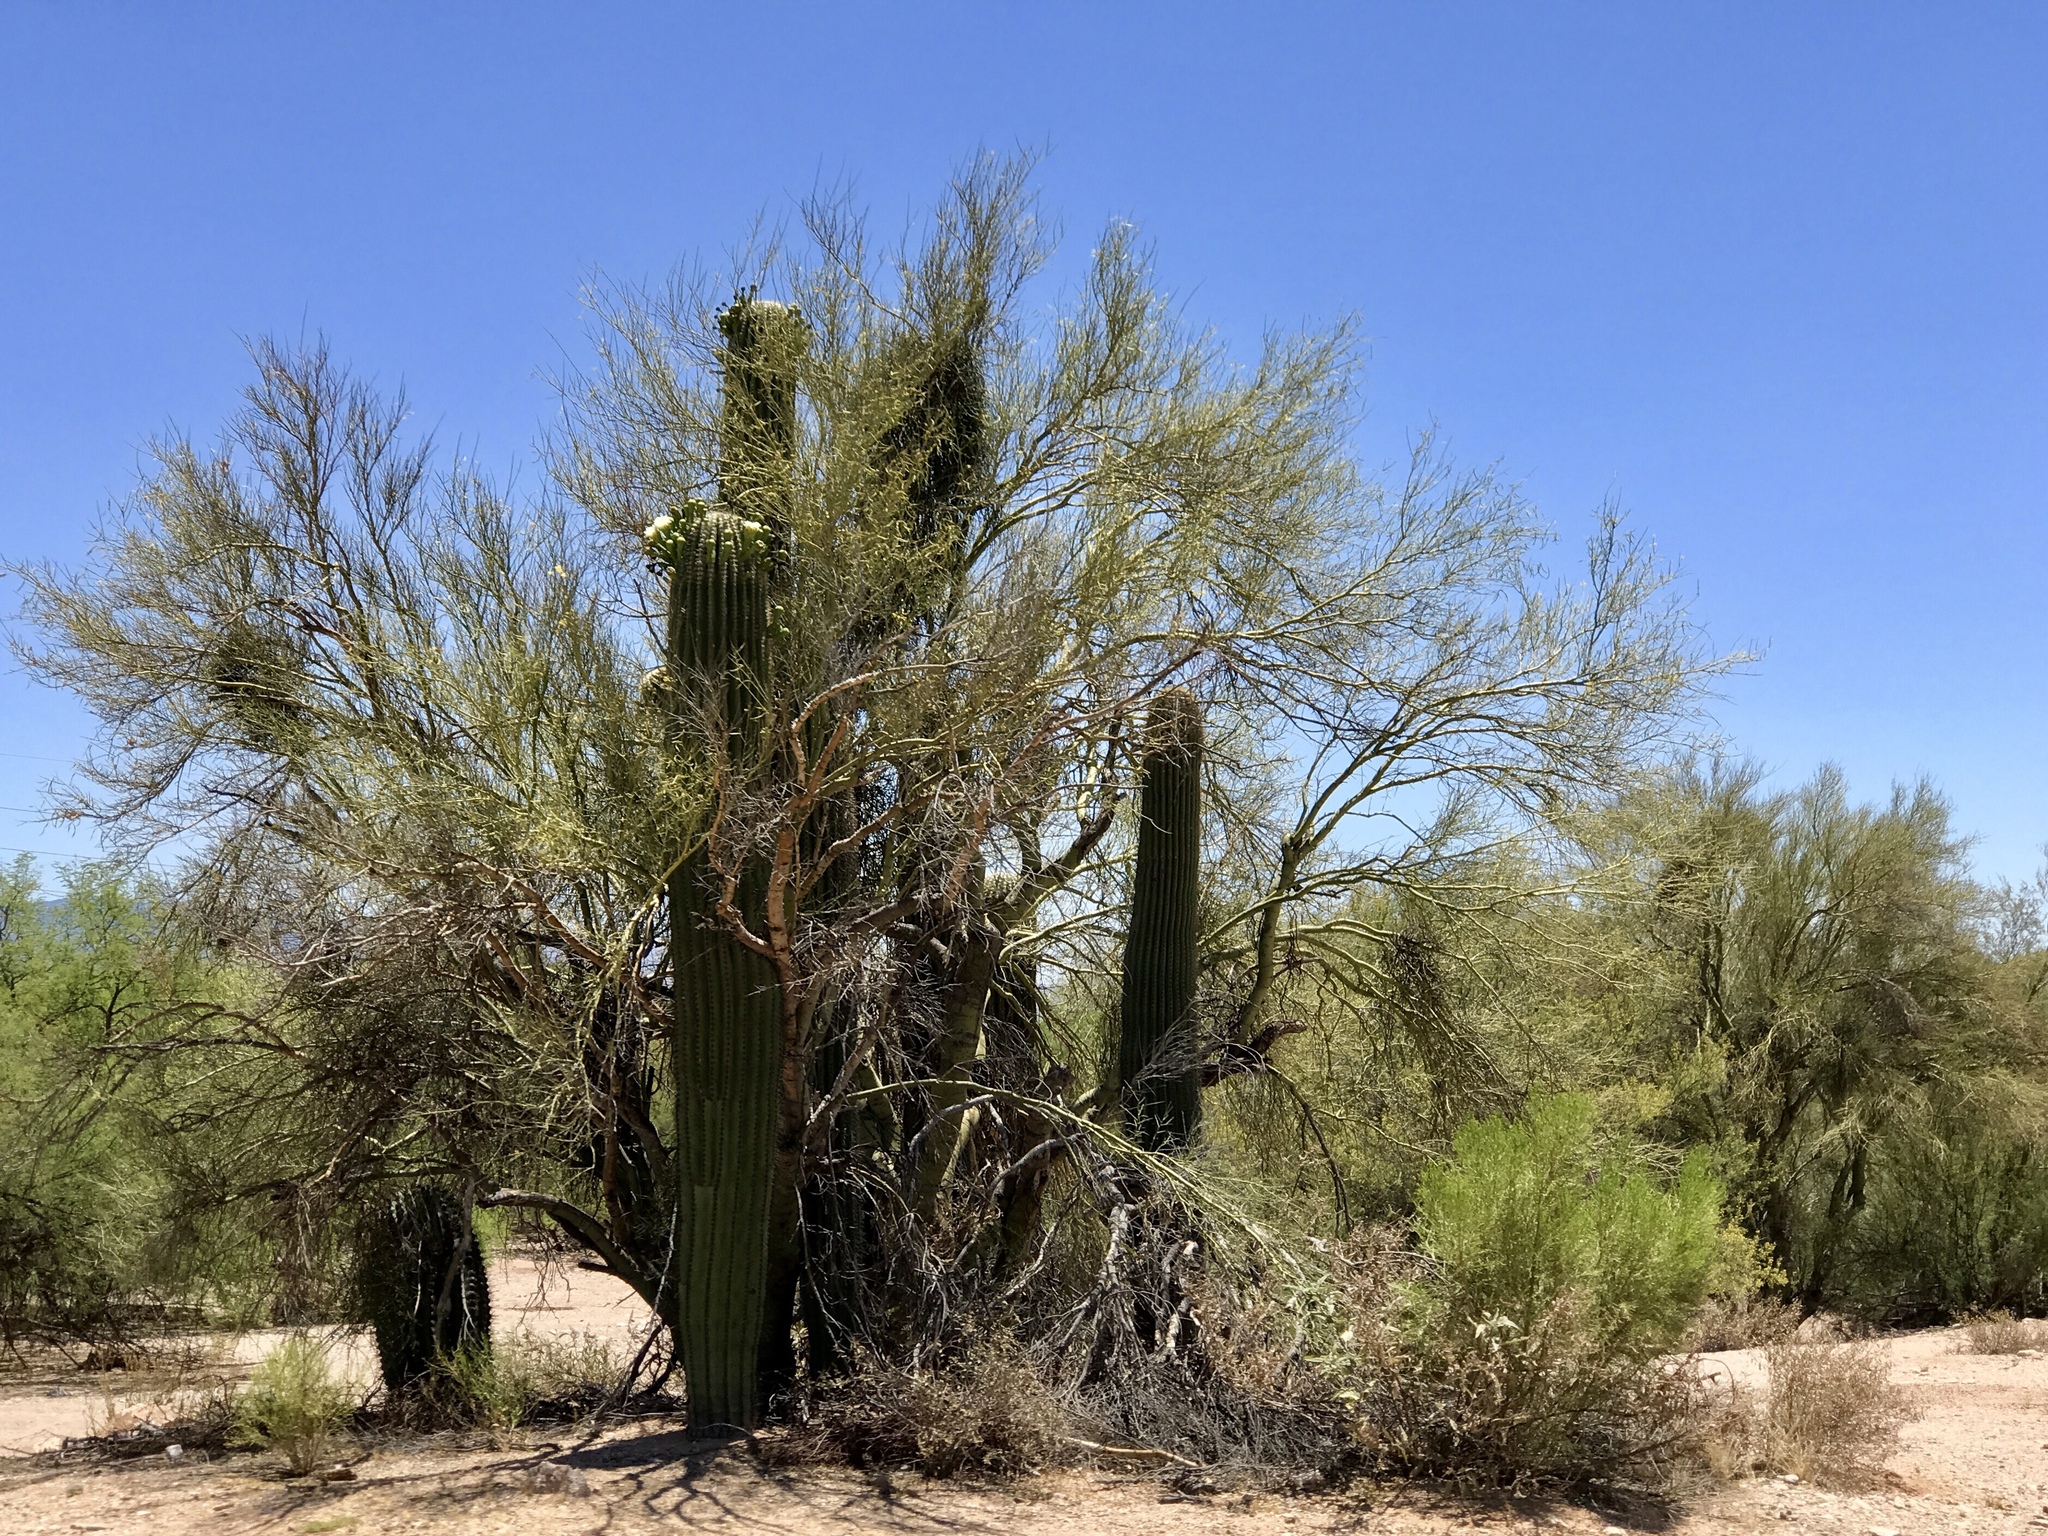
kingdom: Plantae
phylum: Tracheophyta
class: Magnoliopsida
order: Fabales
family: Fabaceae
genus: Parkinsonia
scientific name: Parkinsonia microphylla
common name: Yellow paloverde
